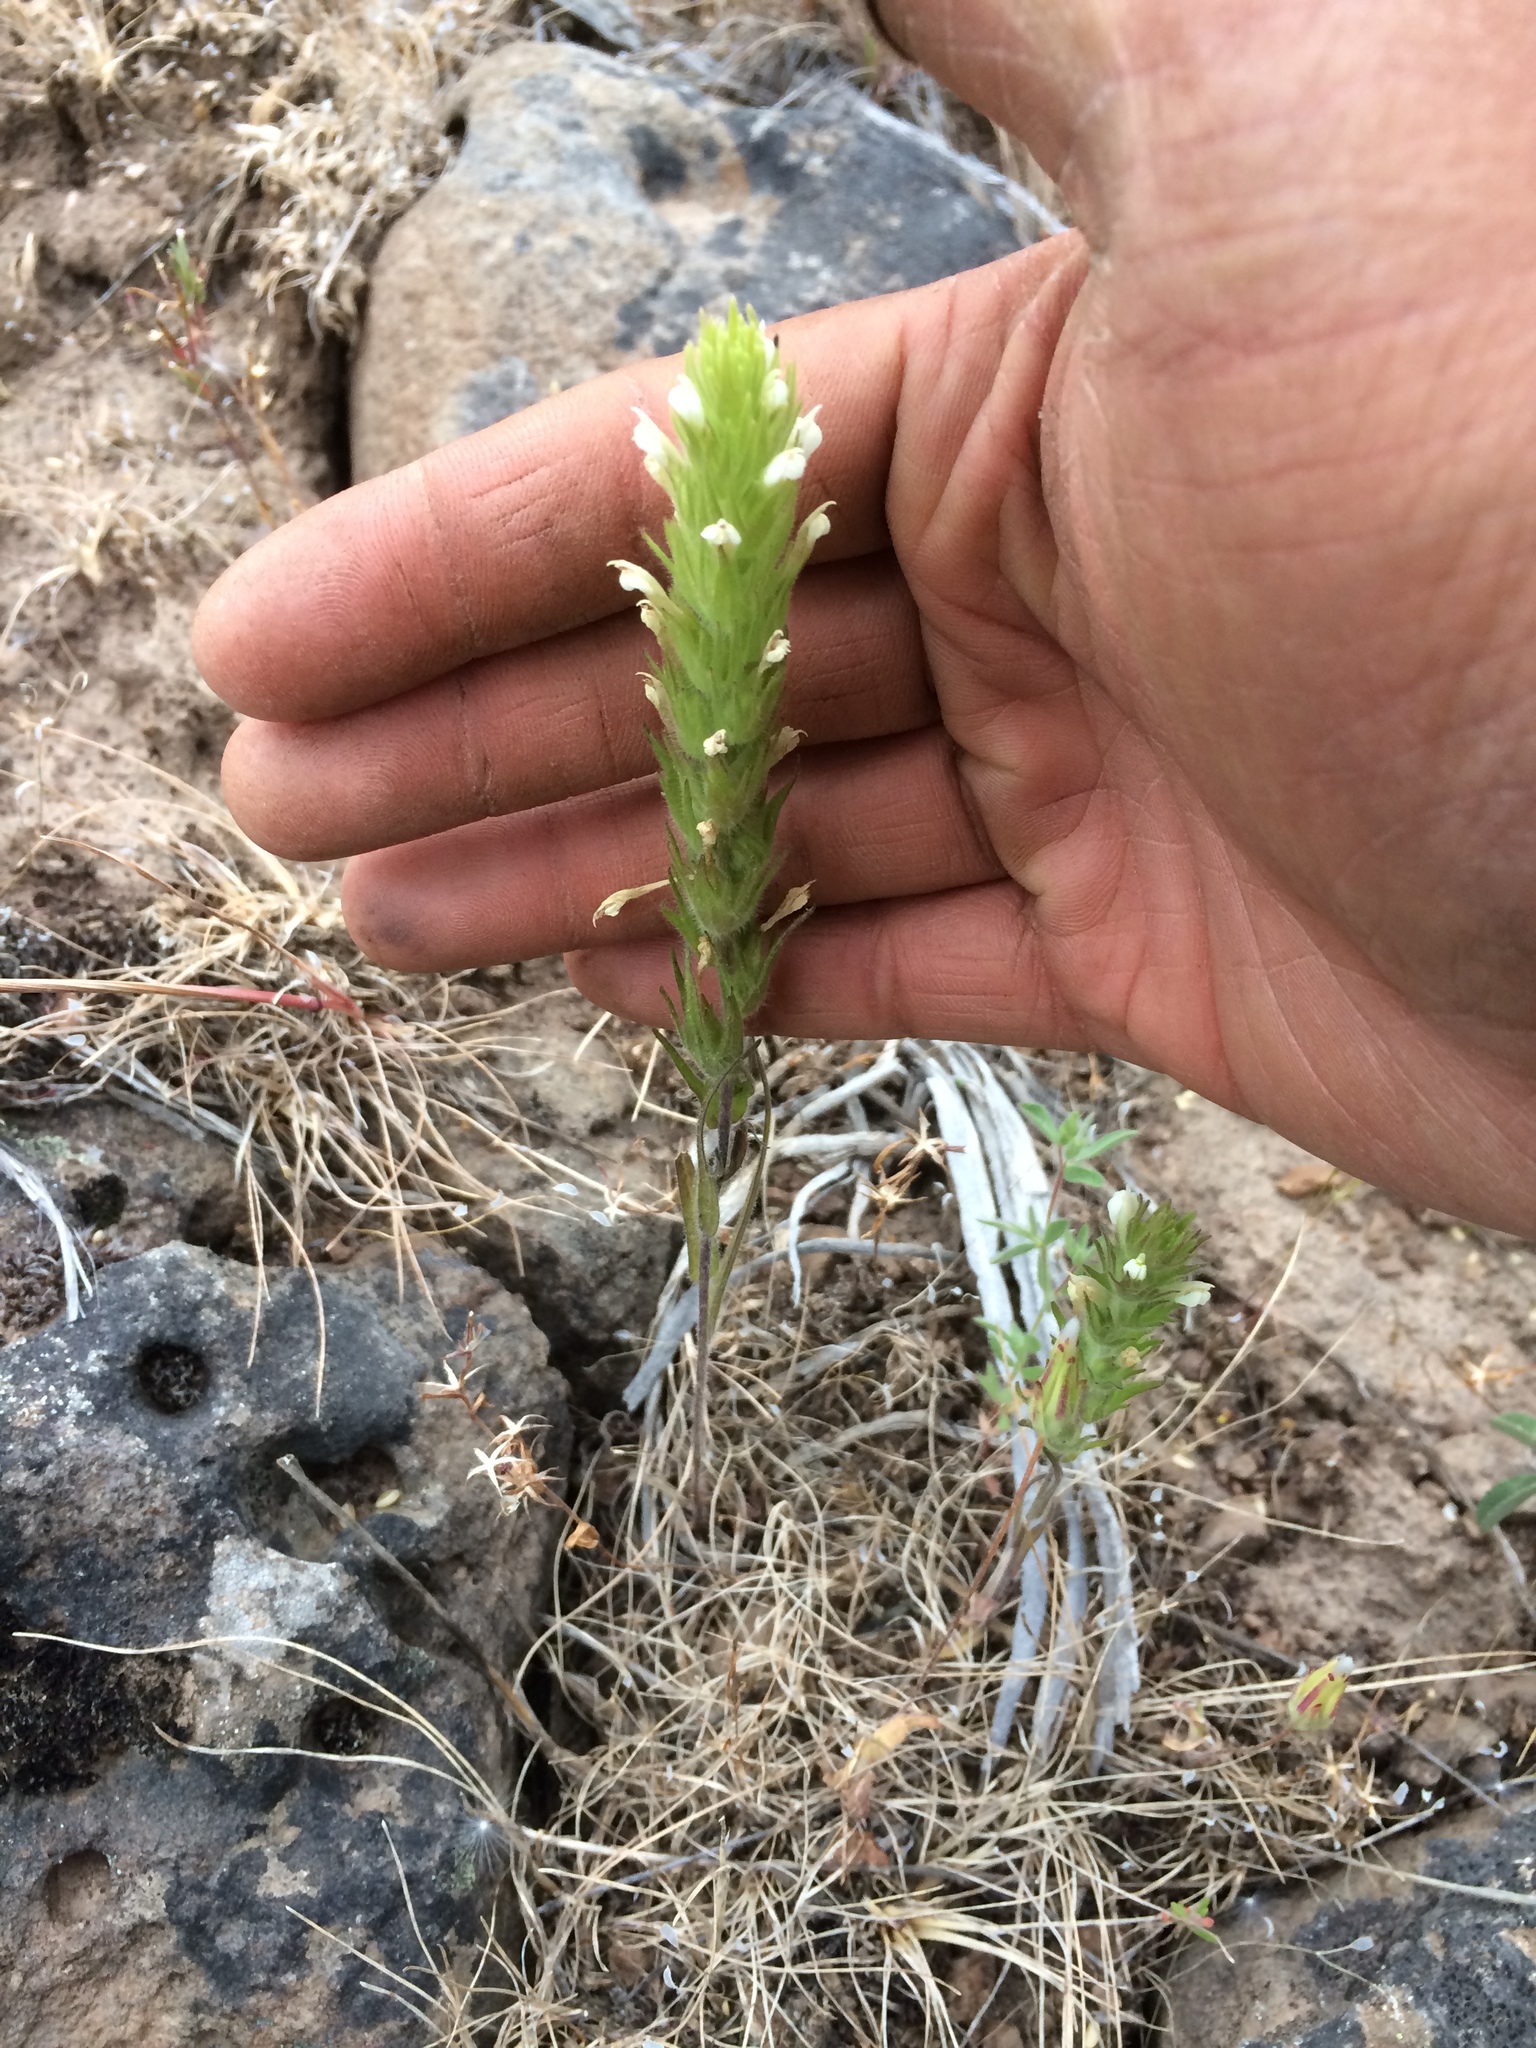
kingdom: Plantae
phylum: Tracheophyta
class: Magnoliopsida
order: Lamiales
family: Orobanchaceae
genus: Castilleja
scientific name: Castilleja tenuis
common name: Hairy indian paintbrush
